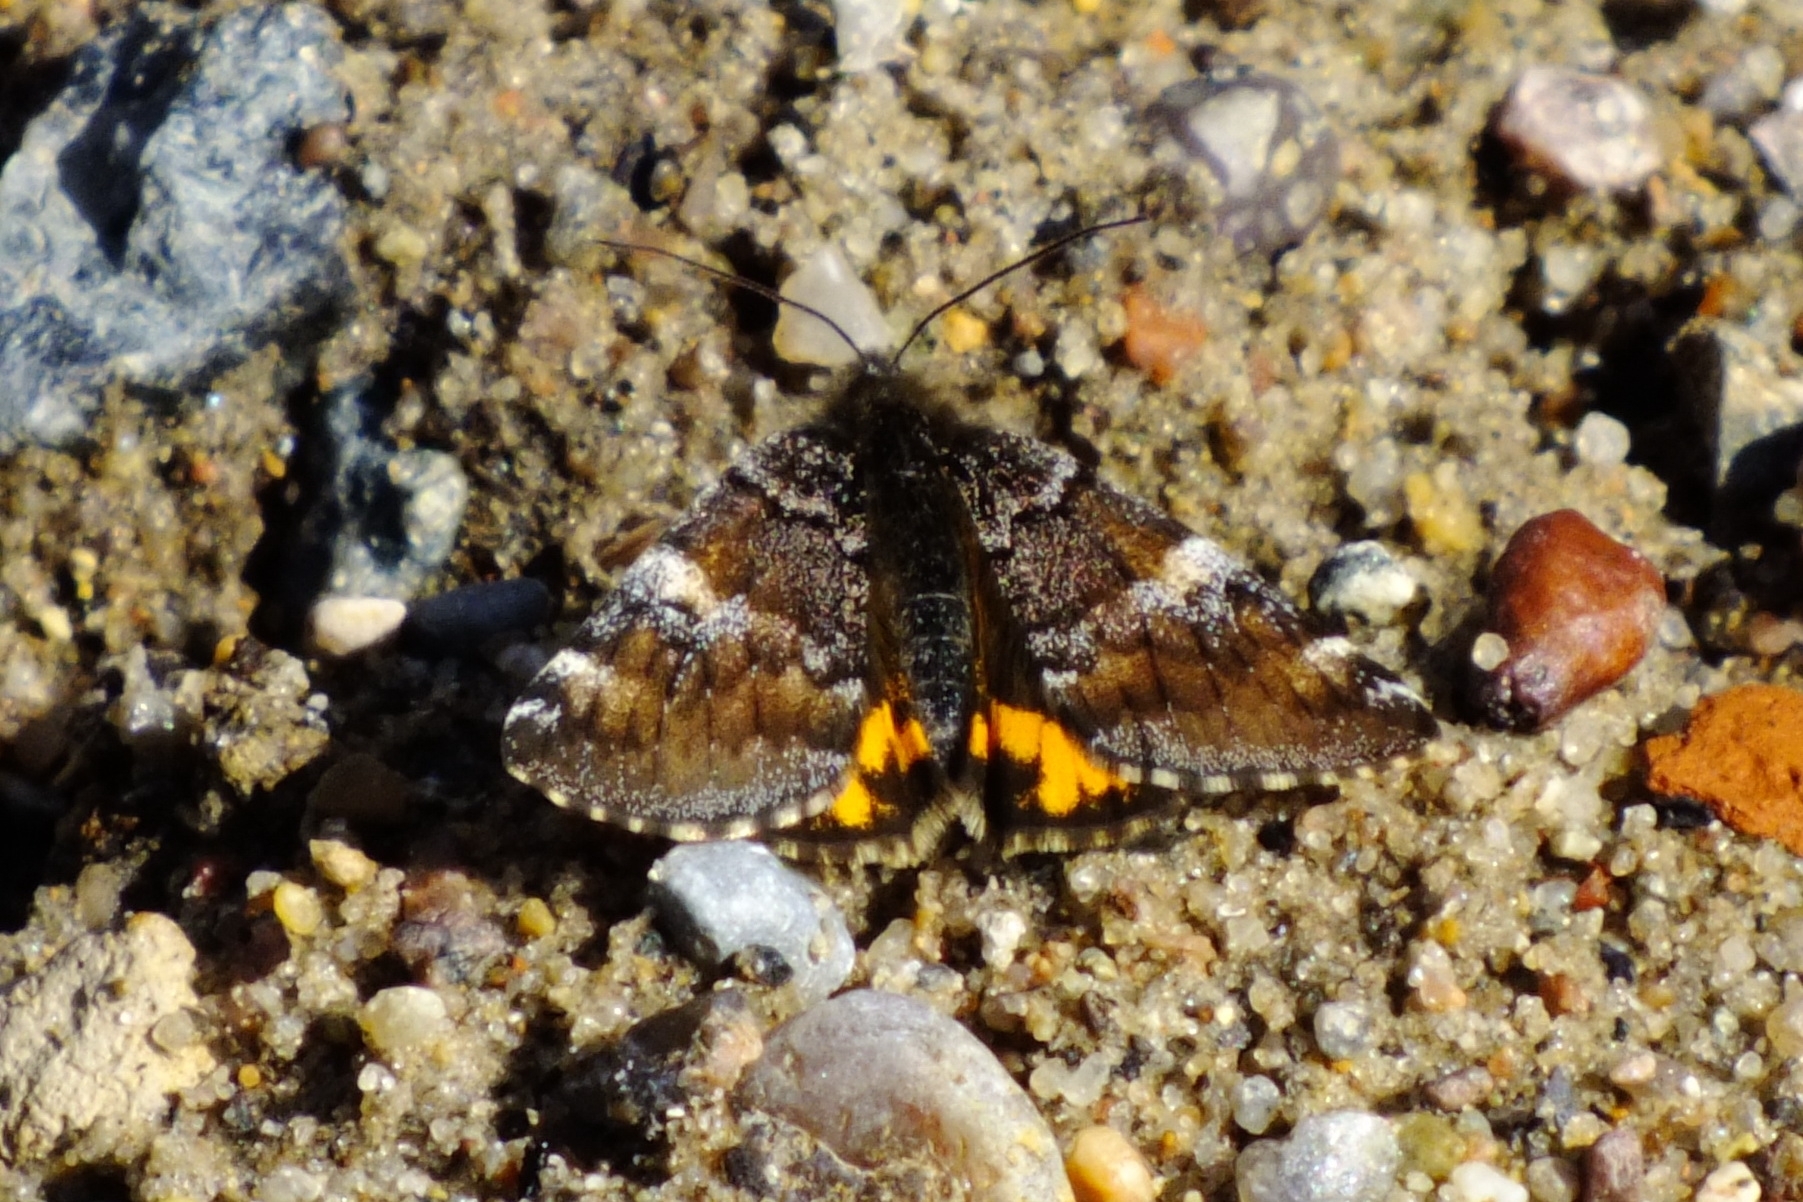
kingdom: Animalia
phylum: Arthropoda
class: Insecta
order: Lepidoptera
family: Geometridae
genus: Archiearis
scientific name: Archiearis parthenias
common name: Orange underwing
